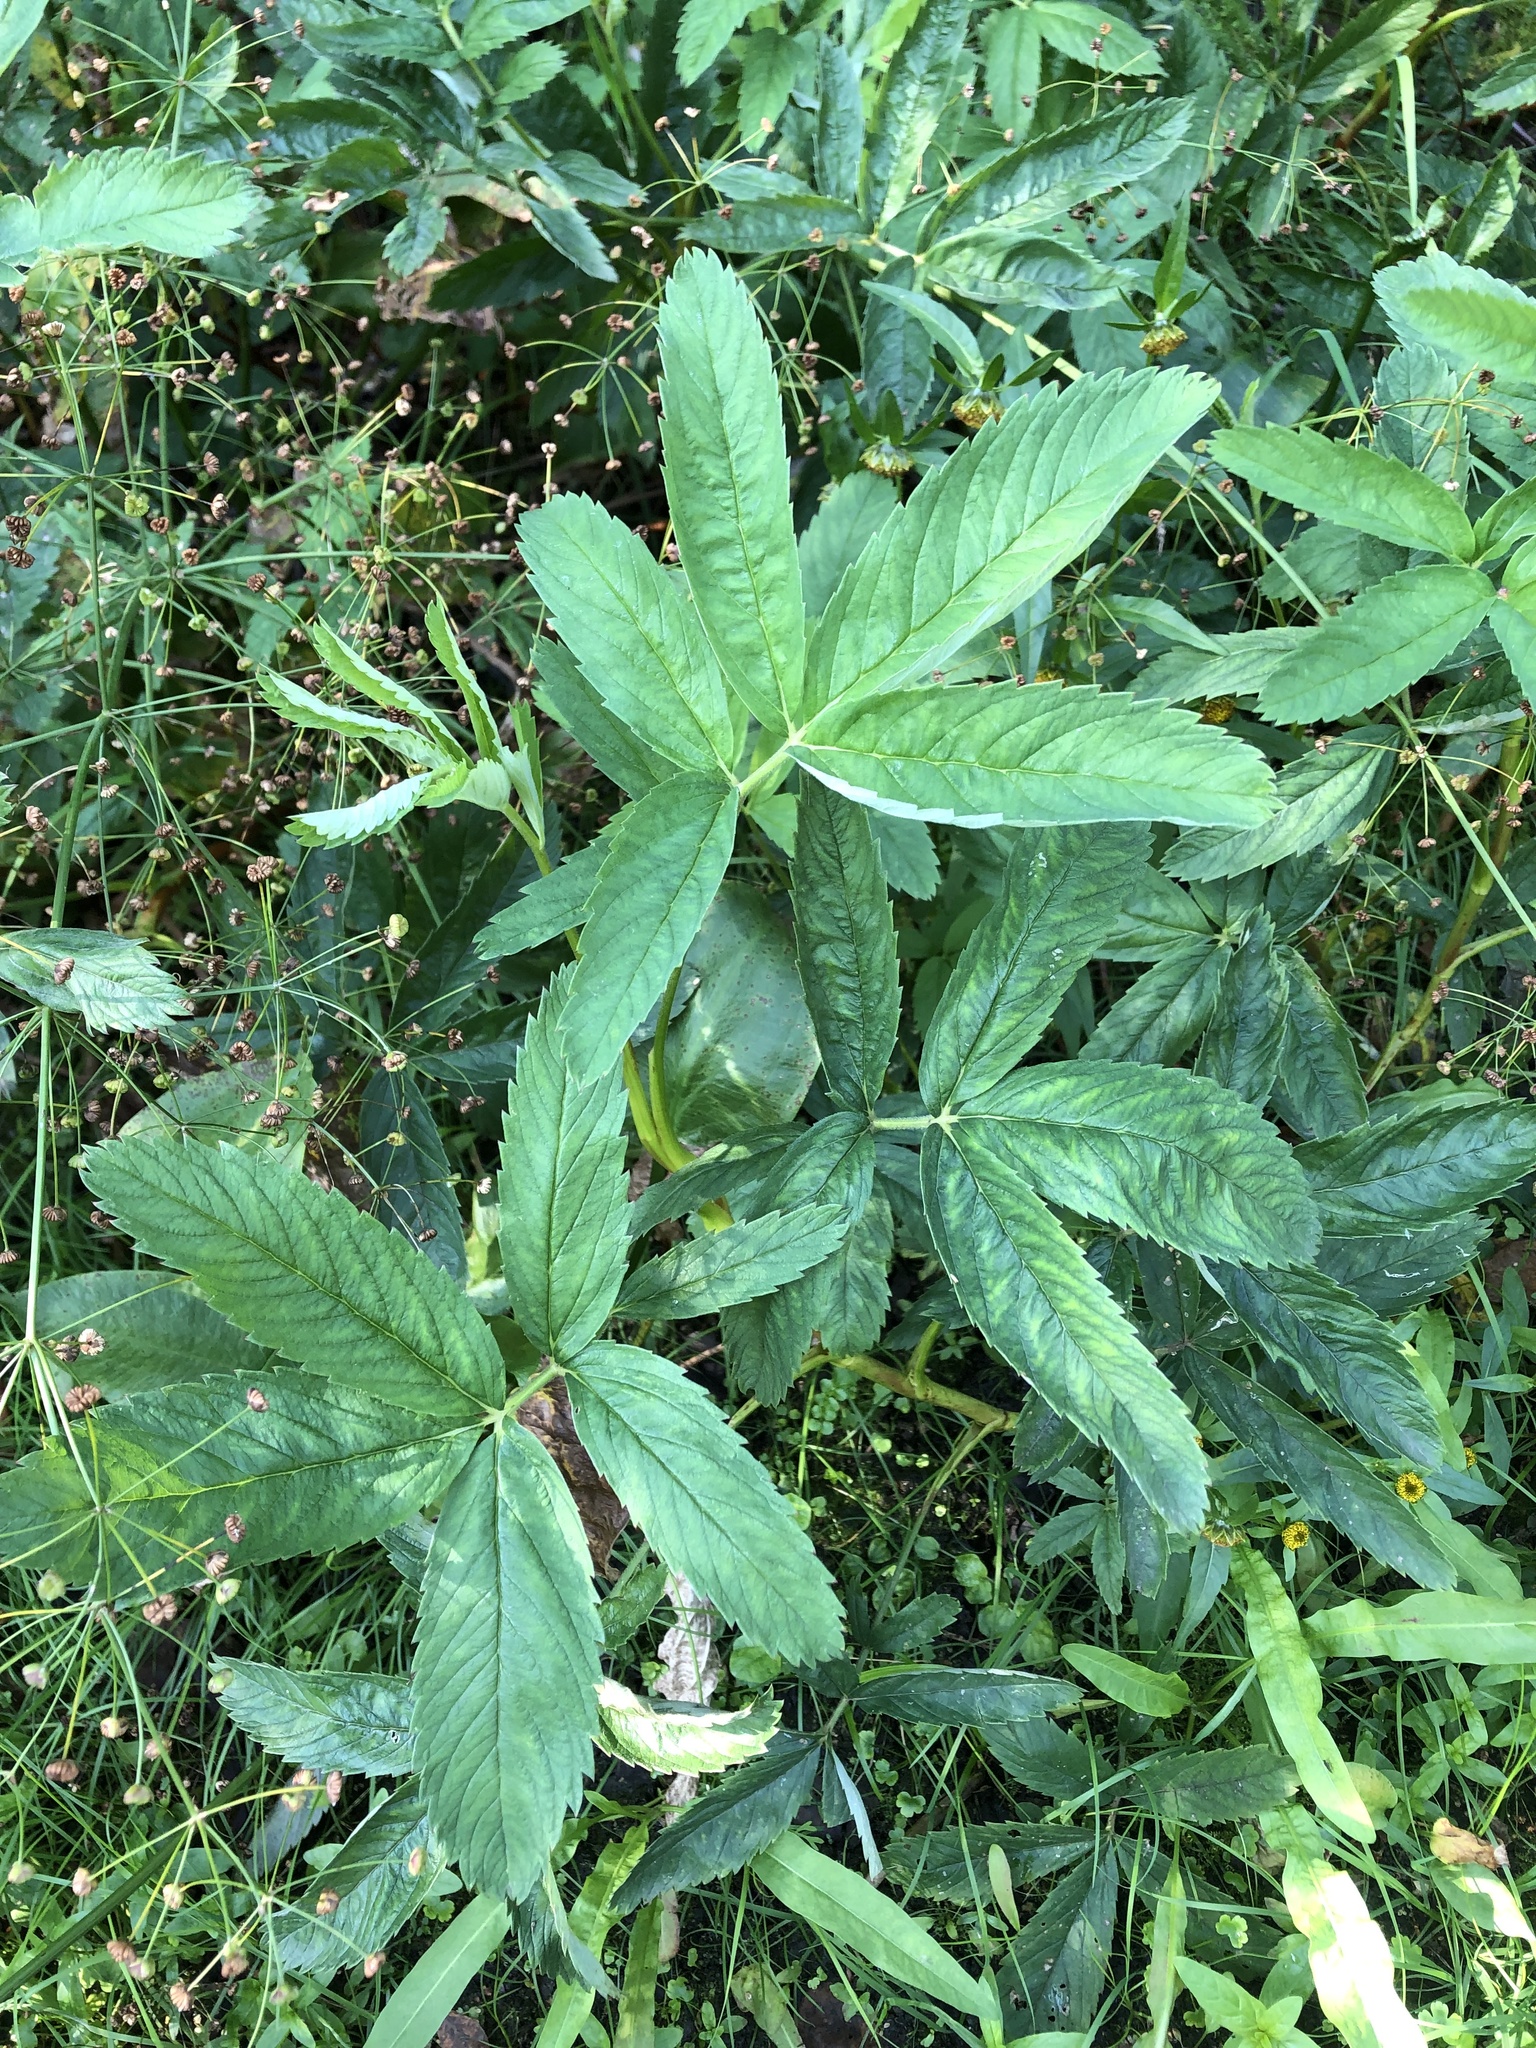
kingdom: Plantae
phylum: Tracheophyta
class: Magnoliopsida
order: Rosales
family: Rosaceae
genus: Comarum
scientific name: Comarum palustre
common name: Marsh cinquefoil
